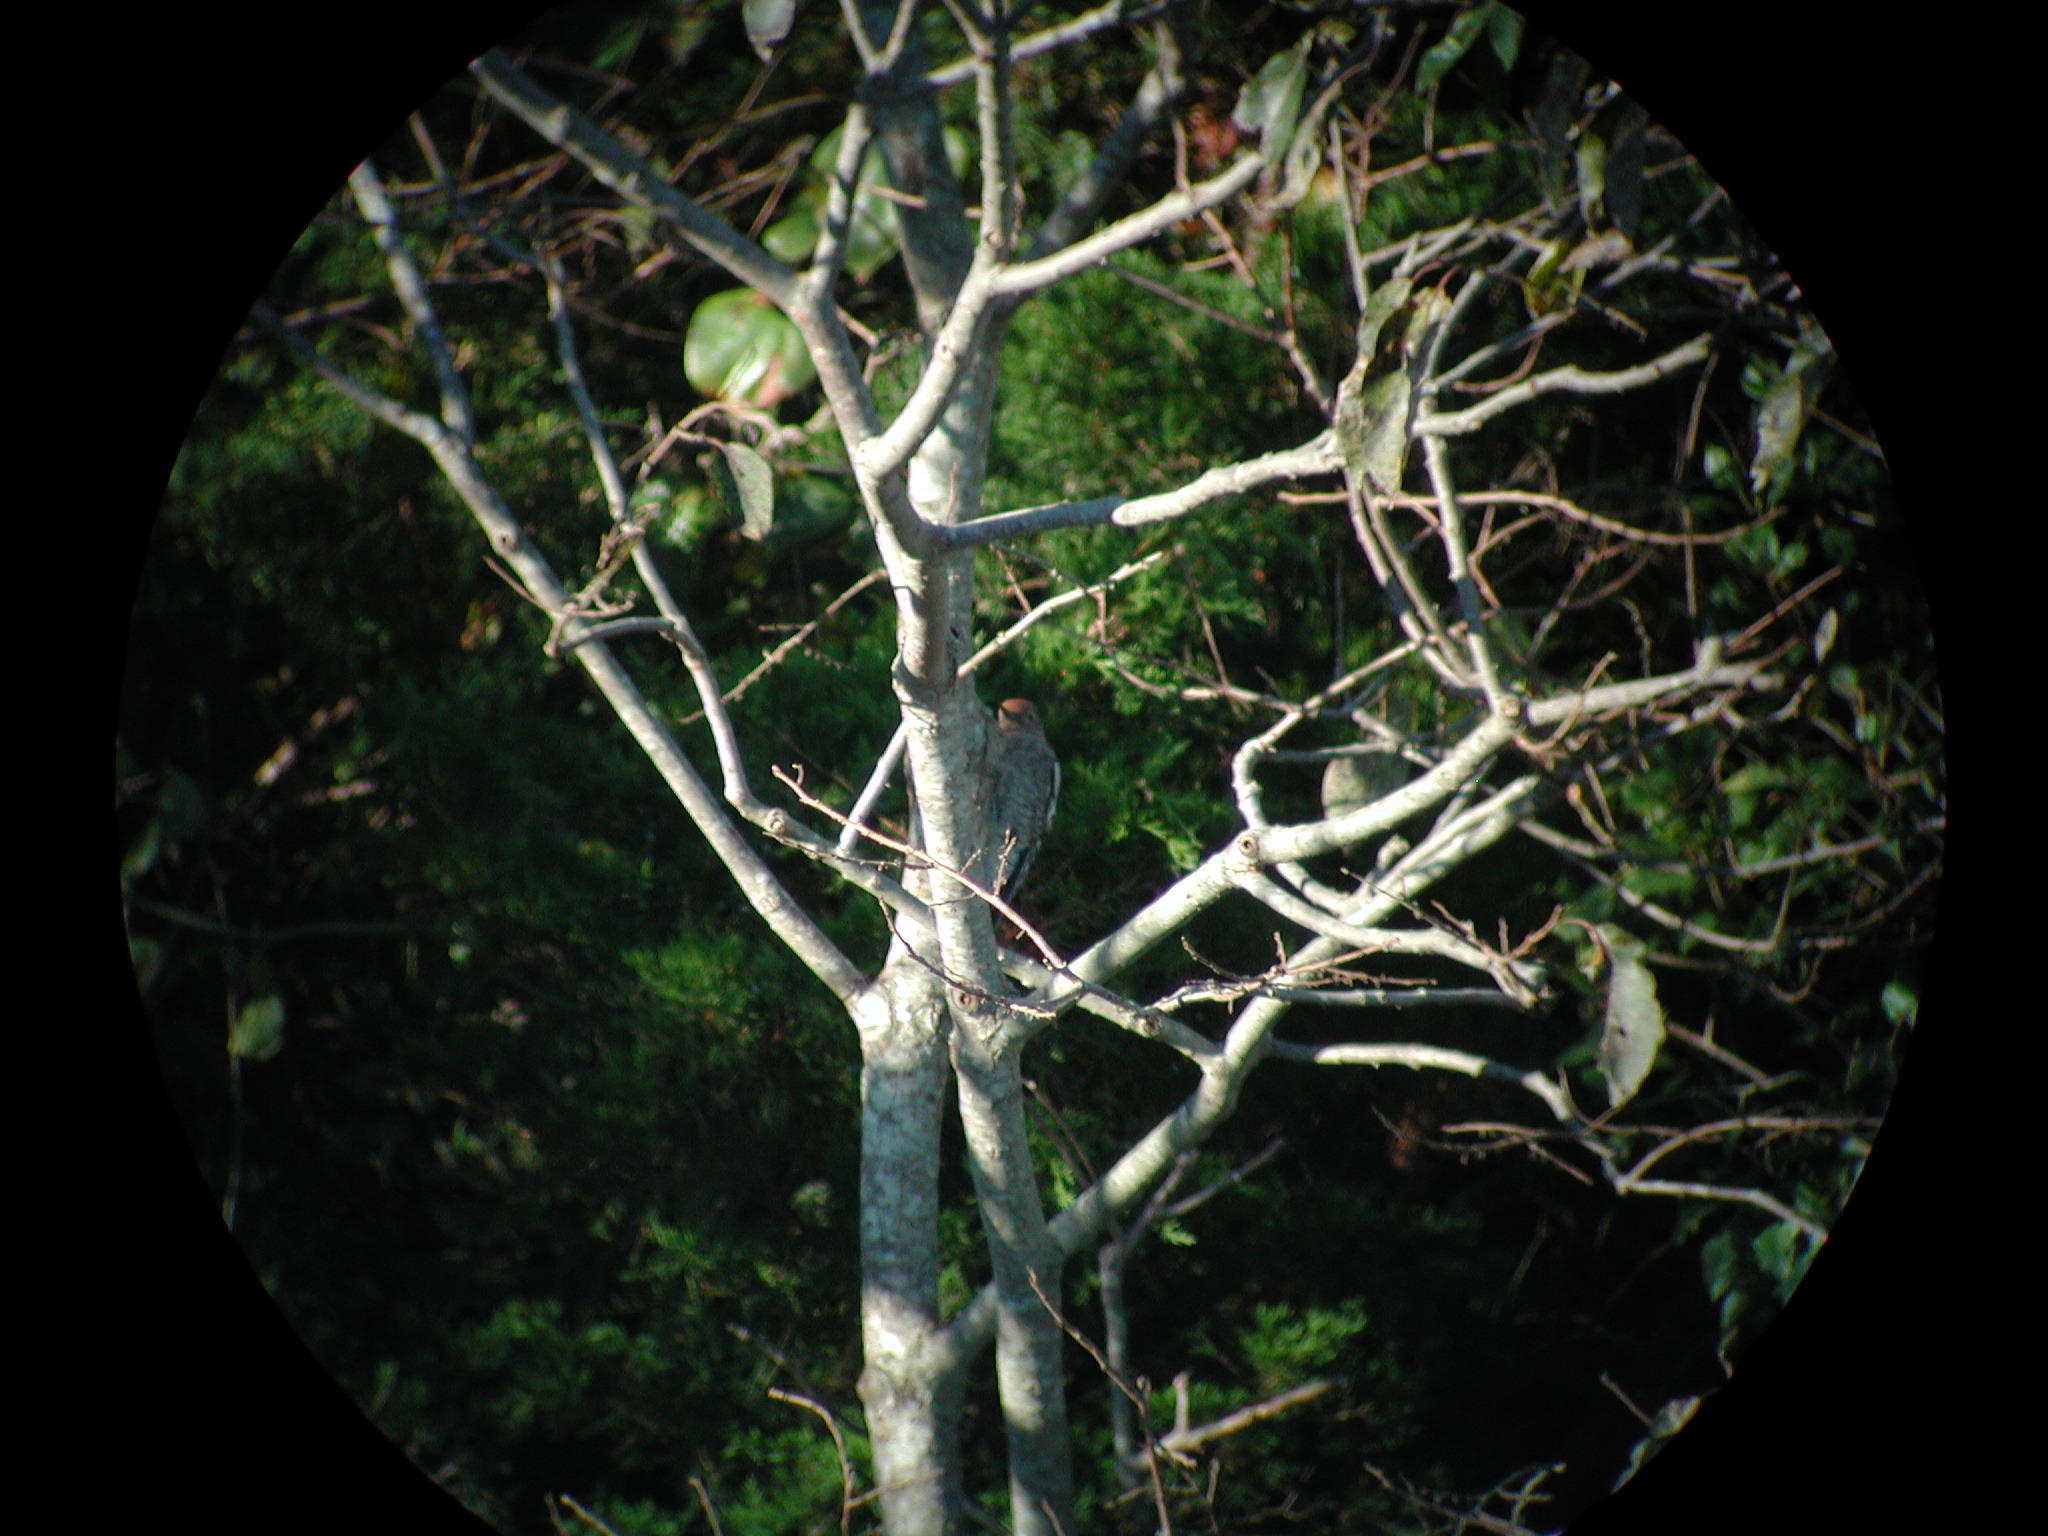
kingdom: Animalia
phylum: Chordata
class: Aves
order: Piciformes
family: Picidae
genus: Sphyrapicus
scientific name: Sphyrapicus varius
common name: Yellow-bellied sapsucker
